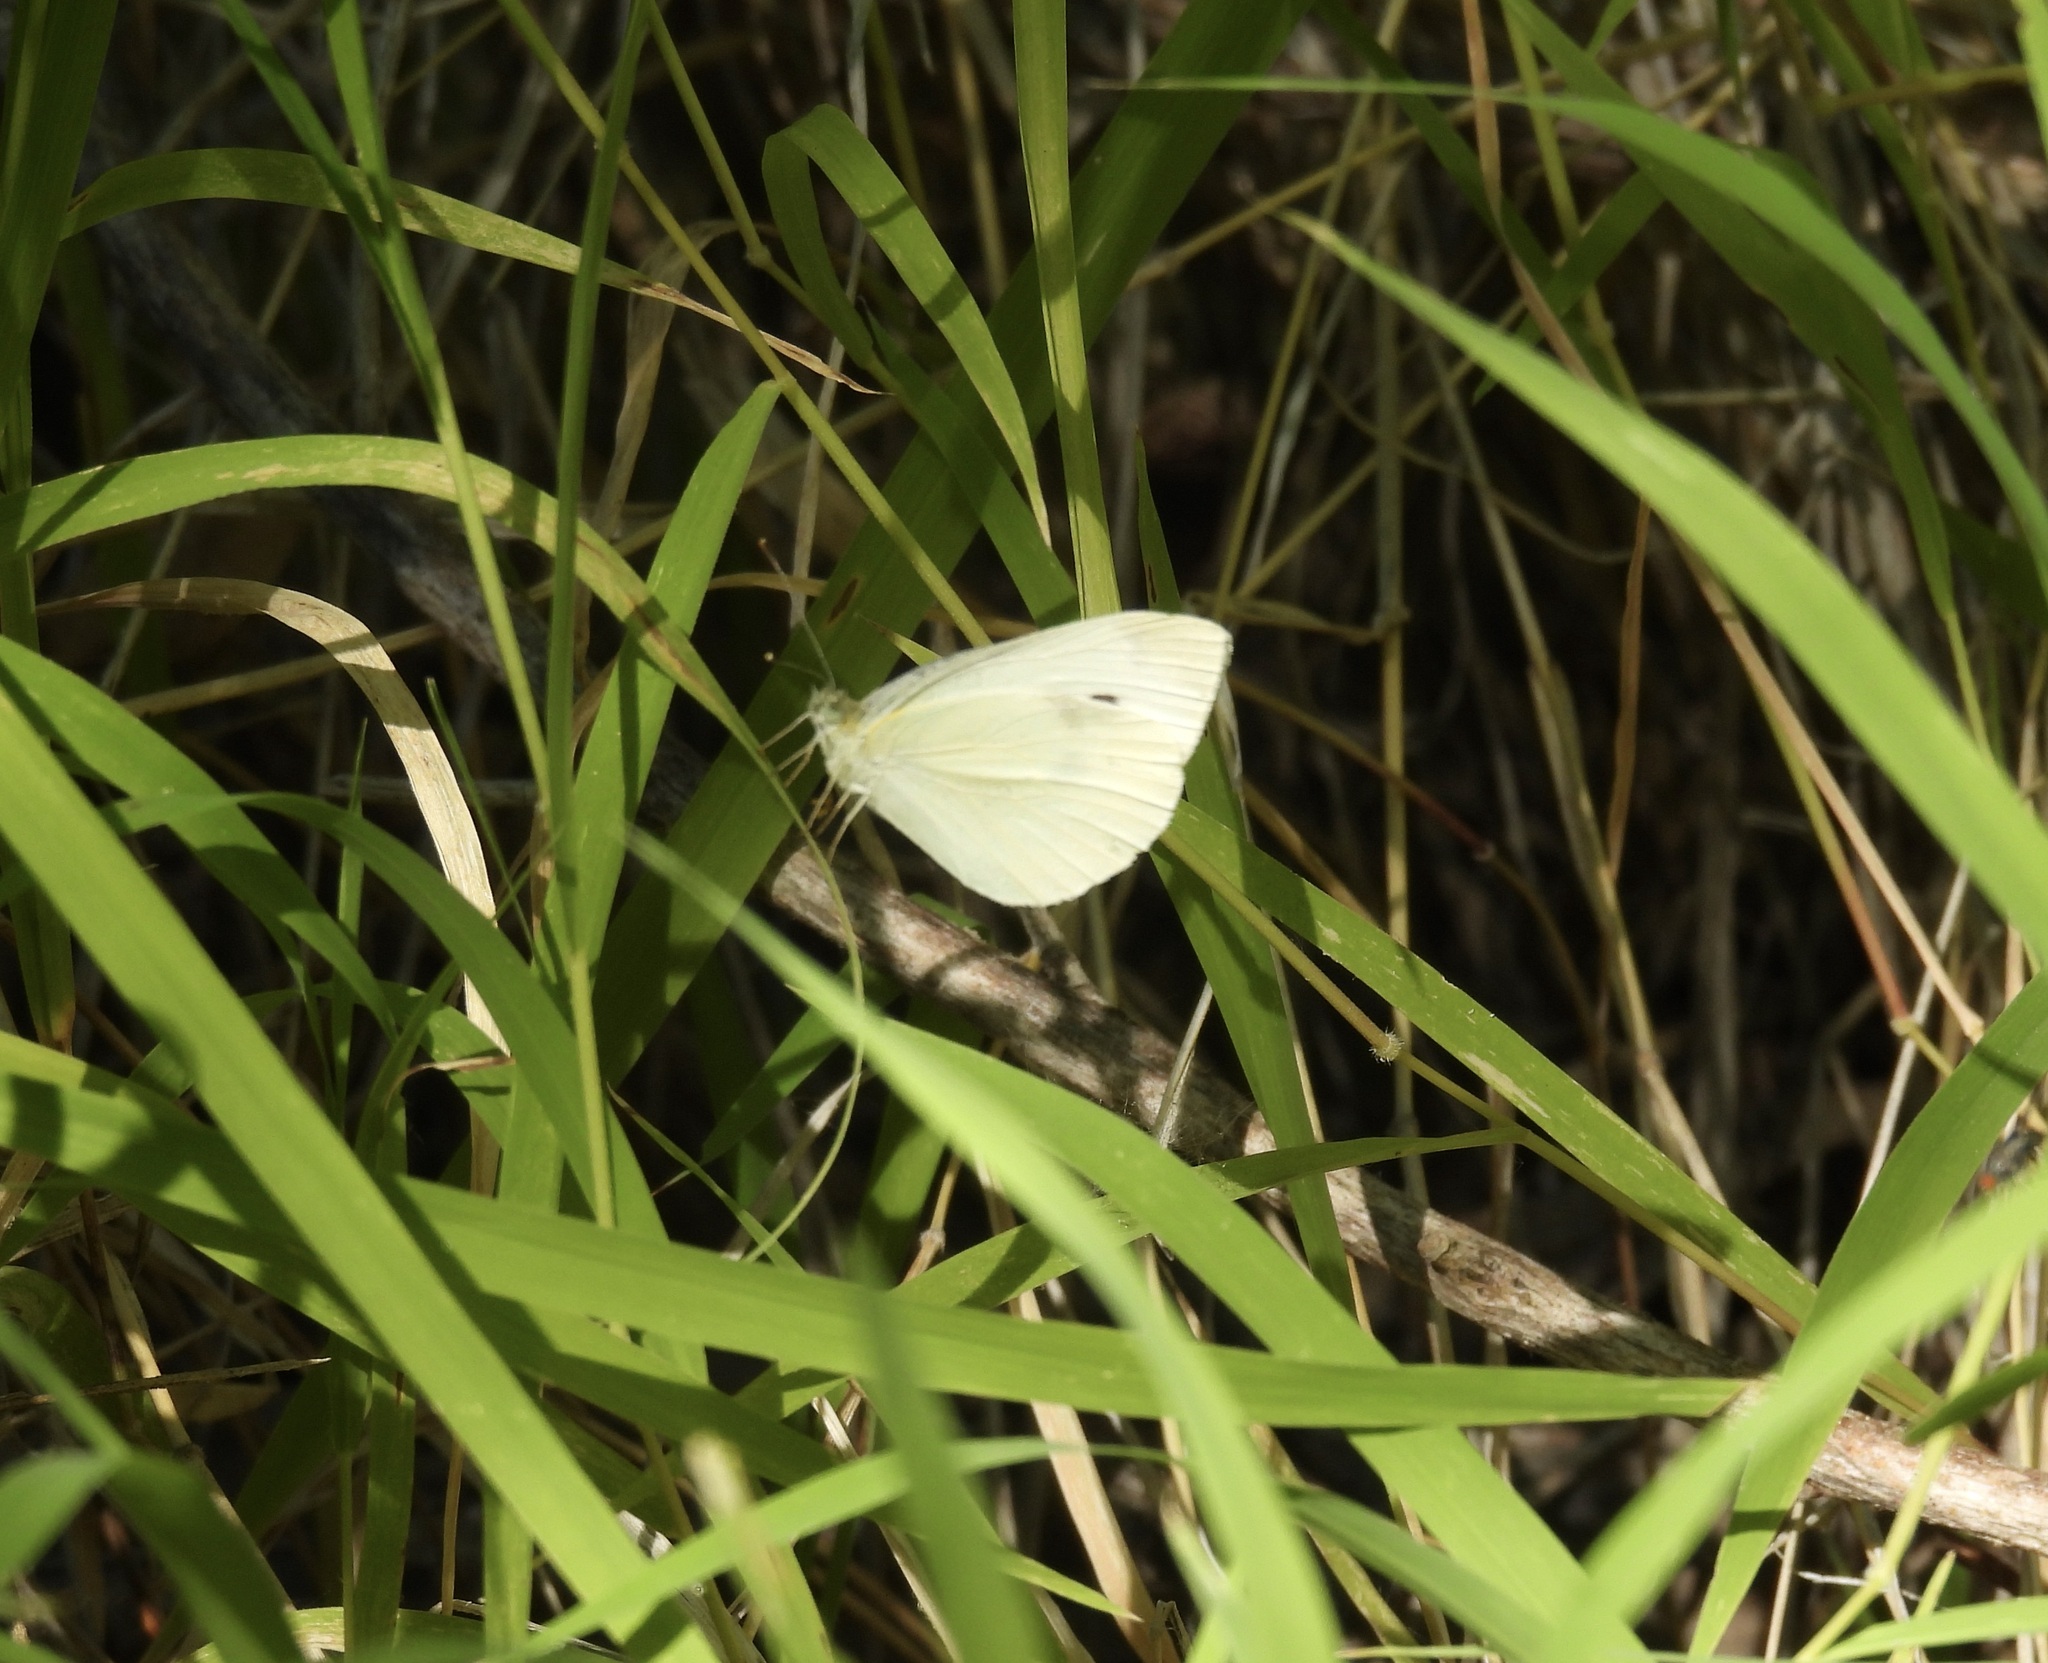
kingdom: Animalia
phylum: Arthropoda
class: Insecta
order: Lepidoptera
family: Pieridae
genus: Pieris
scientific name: Pieris rapae
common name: Small white
